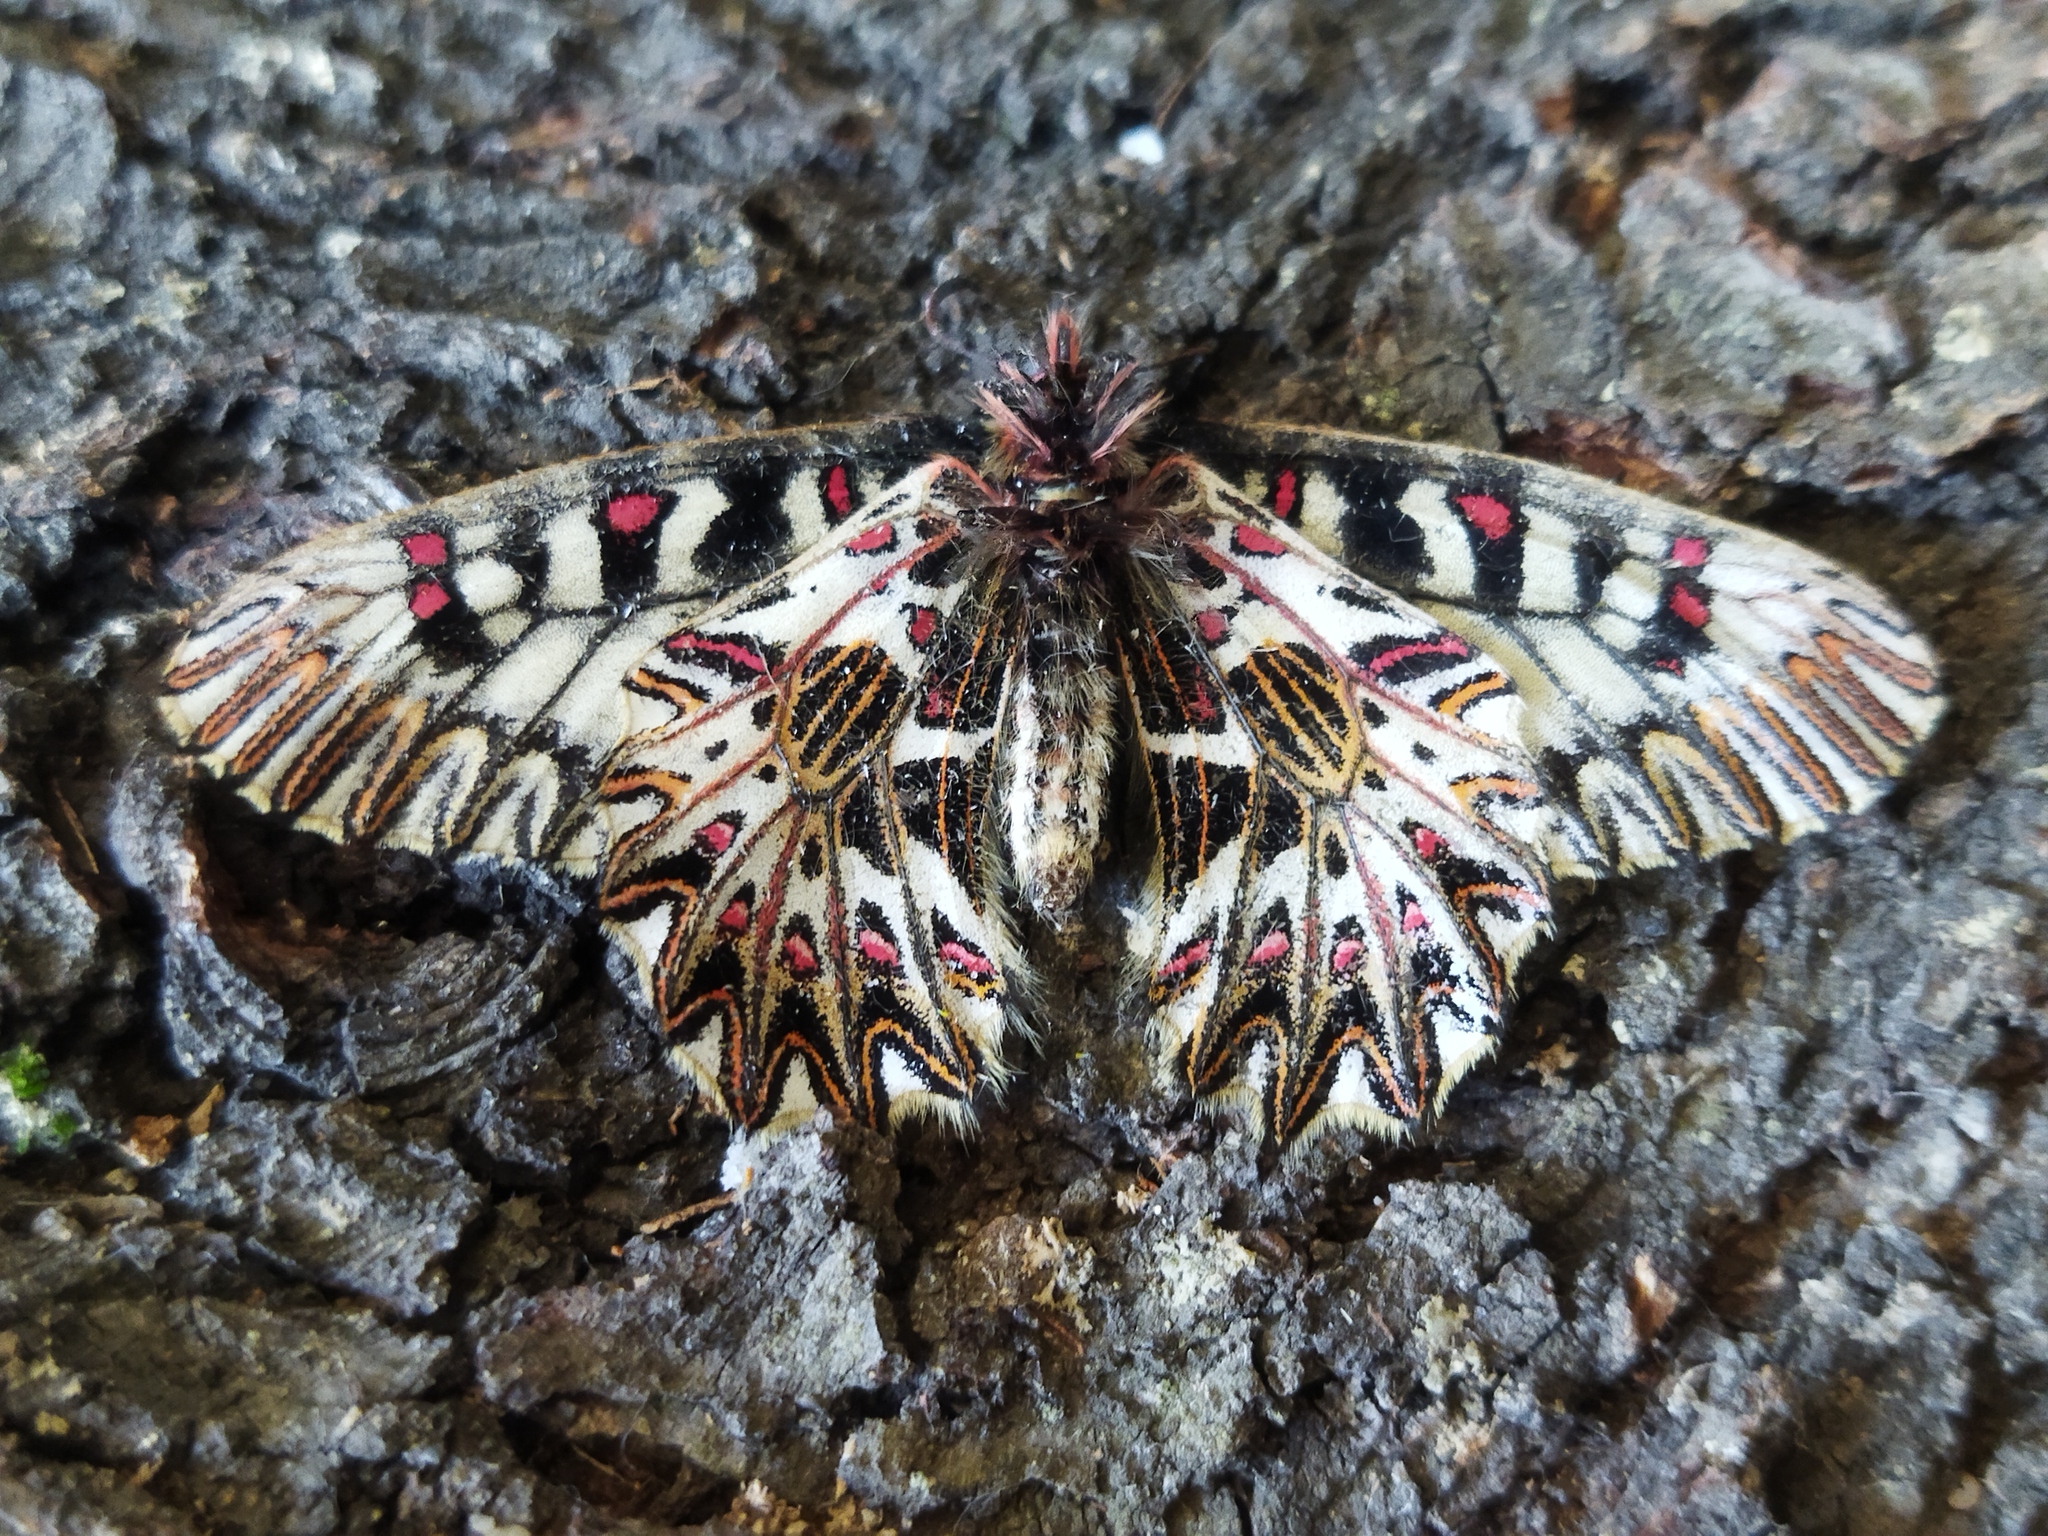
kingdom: Animalia
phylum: Arthropoda
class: Insecta
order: Lepidoptera
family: Papilionidae
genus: Zerynthia
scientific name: Zerynthia polyxena
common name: Southern festoon
